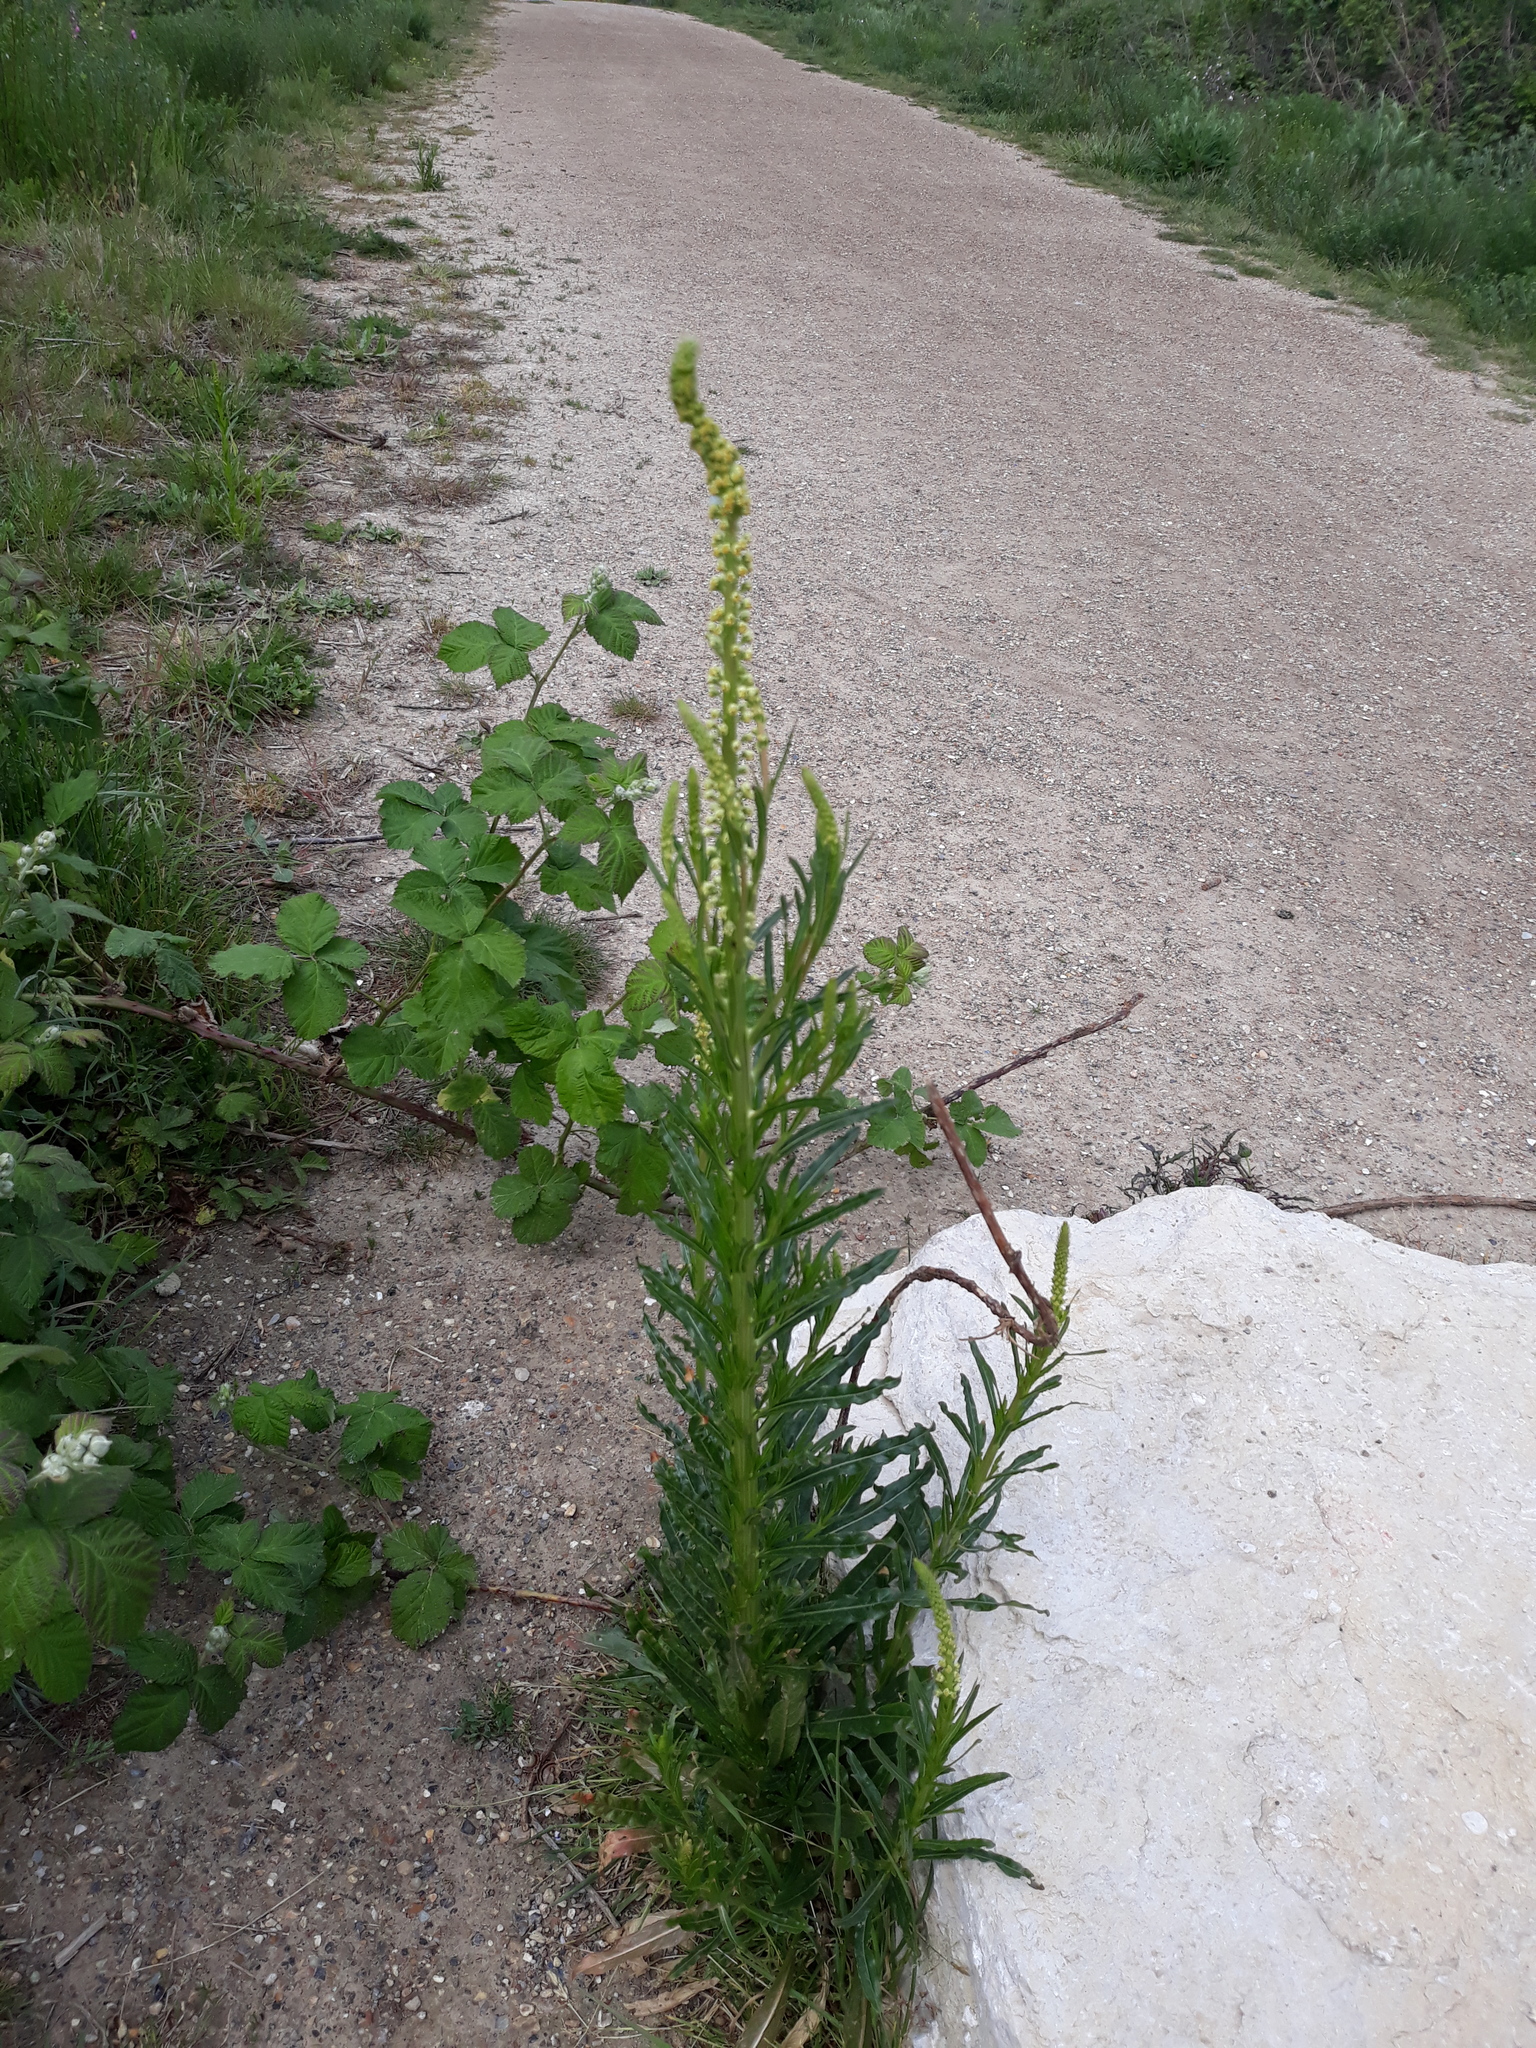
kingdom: Plantae
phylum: Tracheophyta
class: Magnoliopsida
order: Brassicales
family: Resedaceae
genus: Reseda
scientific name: Reseda luteola
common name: Weld
